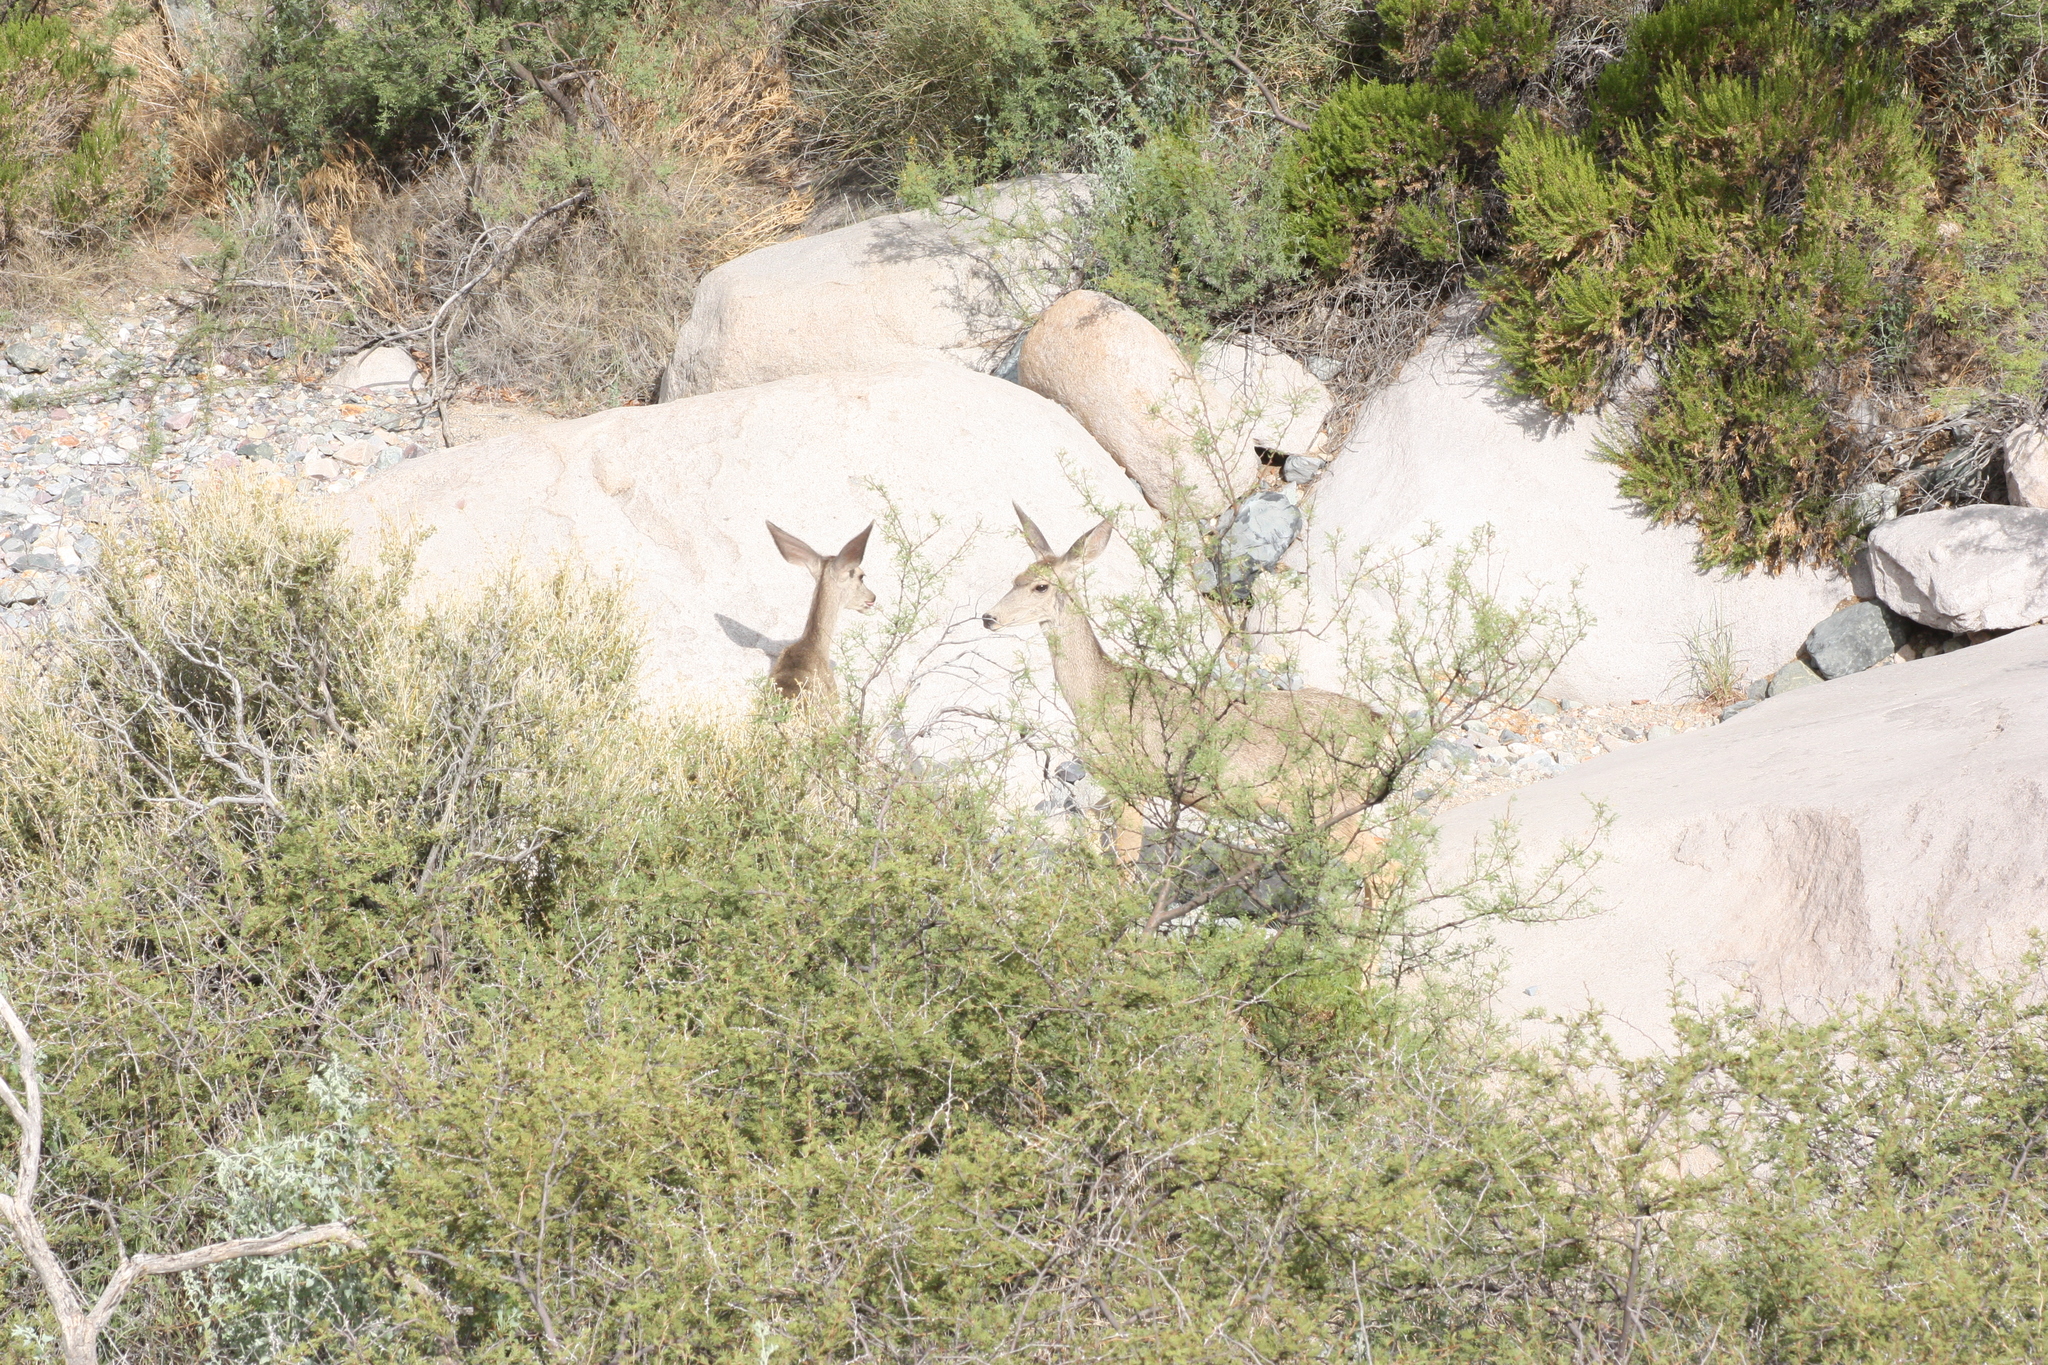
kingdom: Animalia
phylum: Chordata
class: Mammalia
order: Artiodactyla
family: Cervidae
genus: Odocoileus
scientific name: Odocoileus hemionus
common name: Mule deer
